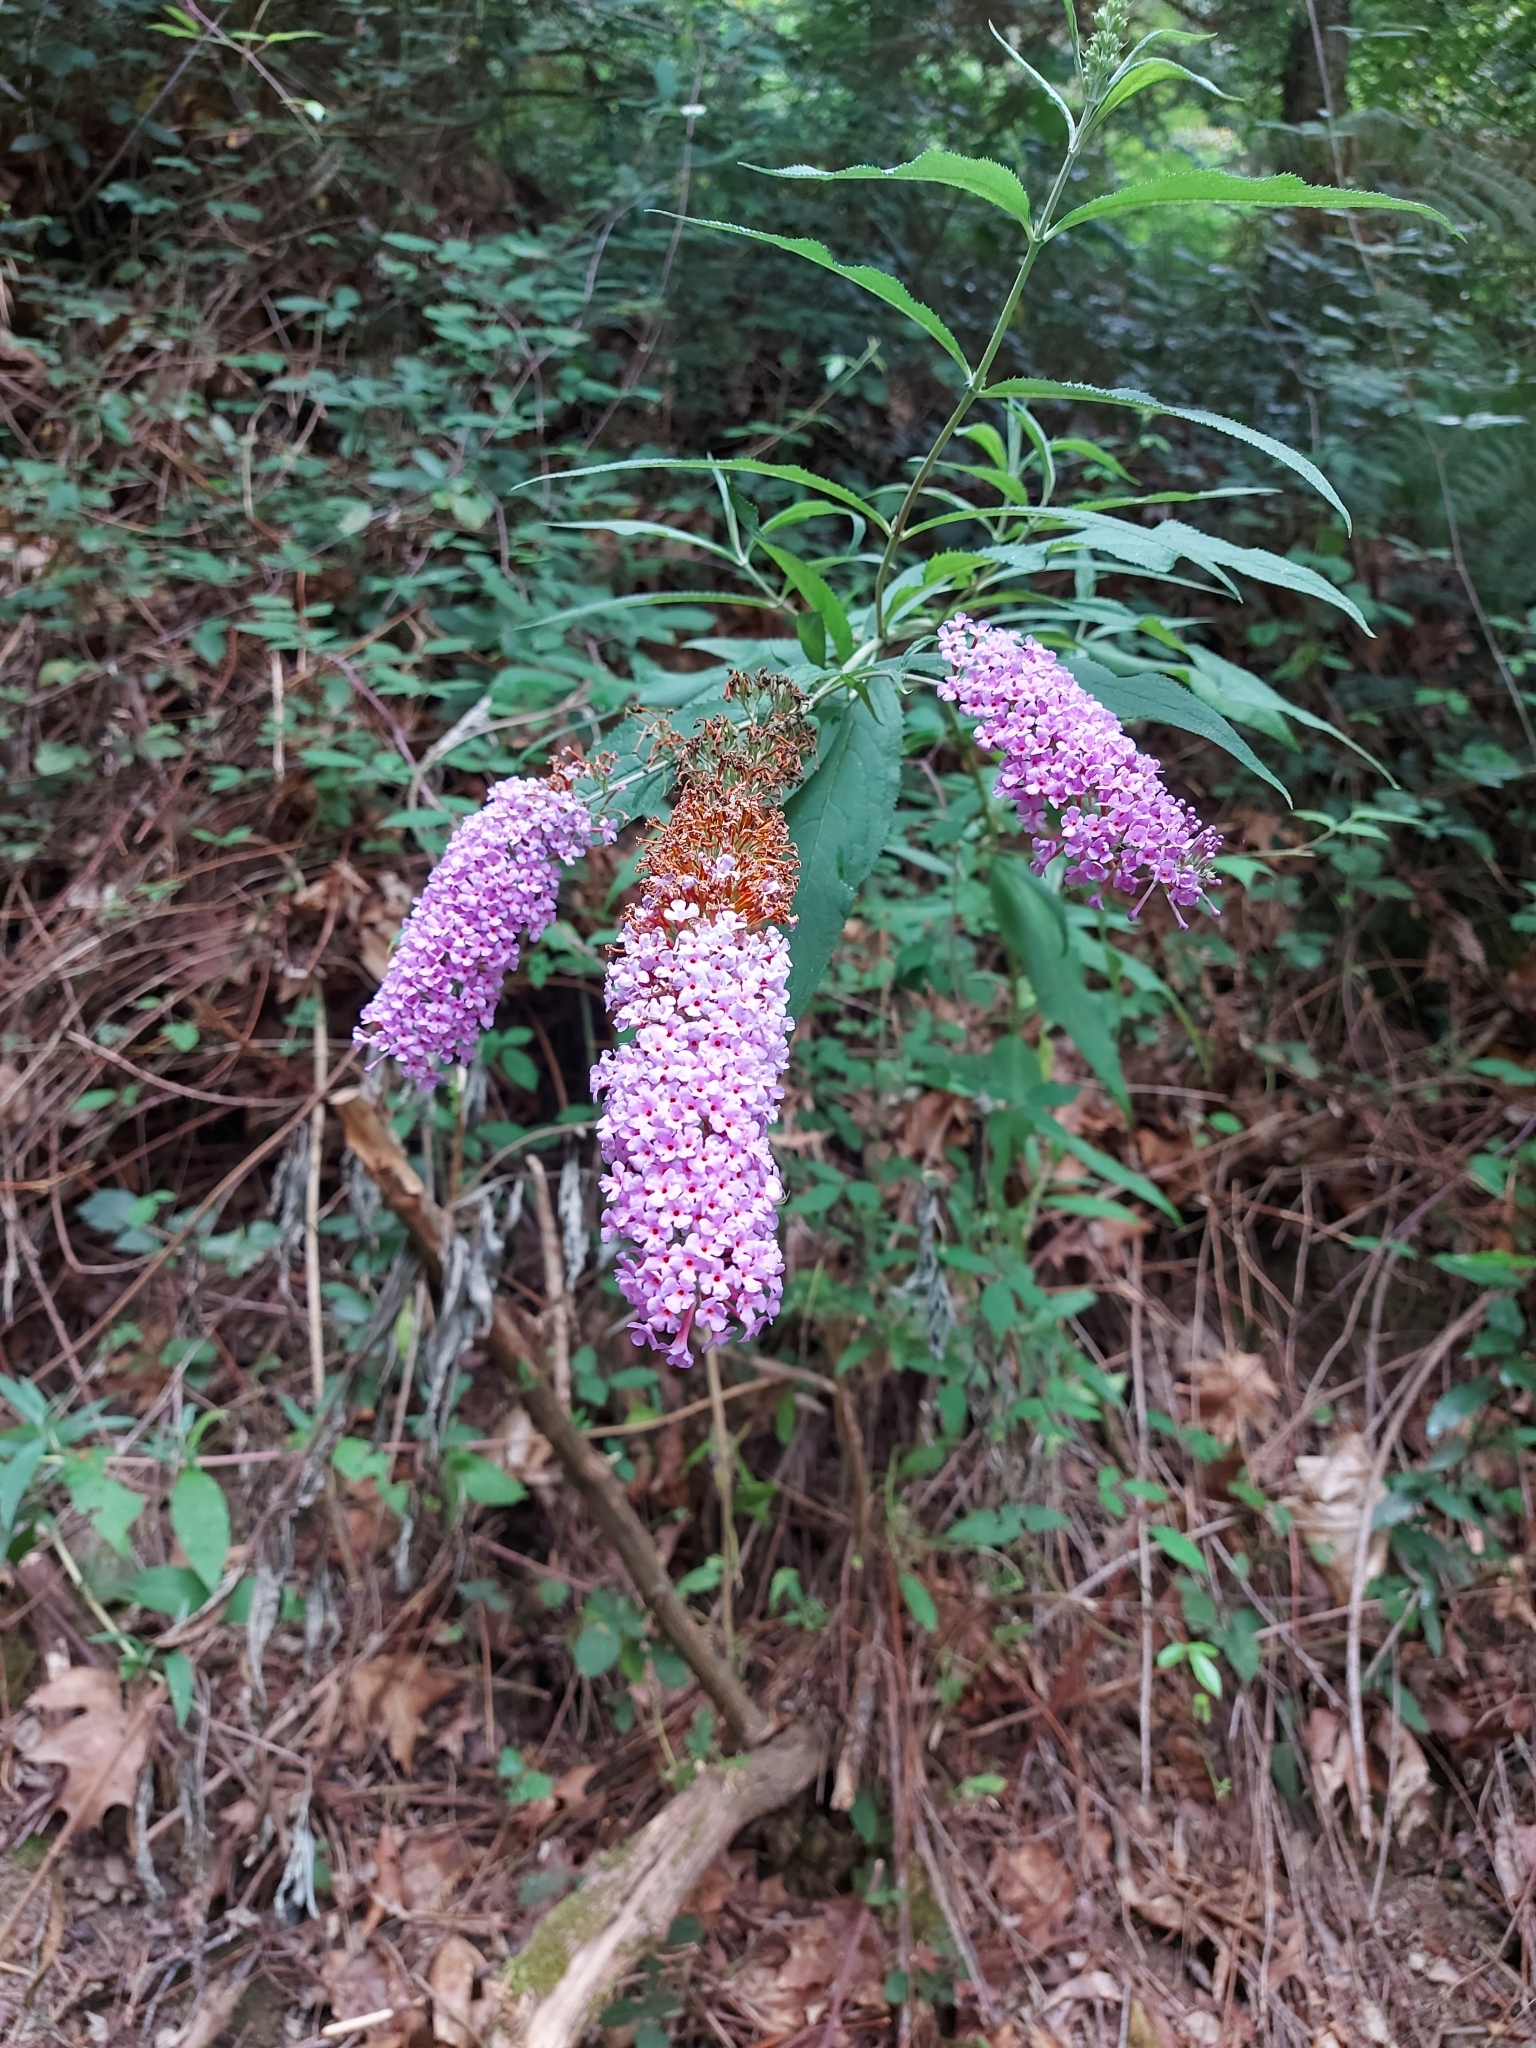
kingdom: Plantae
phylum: Tracheophyta
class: Magnoliopsida
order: Lamiales
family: Scrophulariaceae
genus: Buddleja
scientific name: Buddleja davidii
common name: Butterfly-bush
